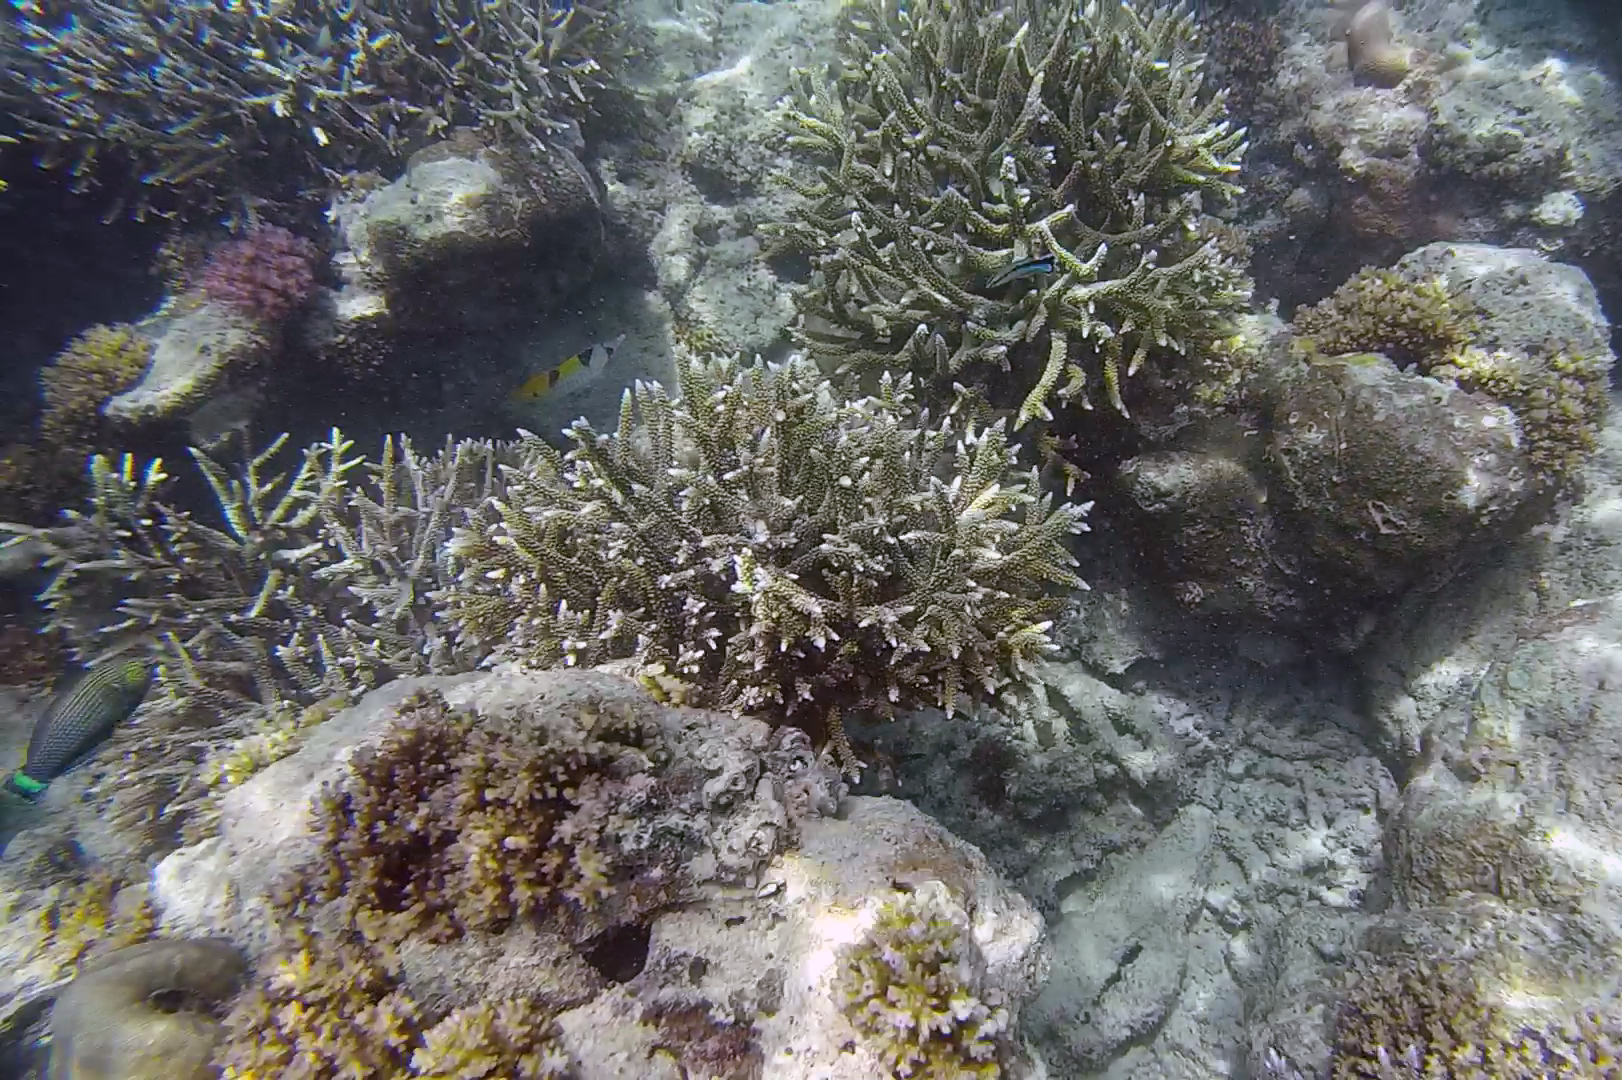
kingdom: Animalia
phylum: Chordata
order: Perciformes
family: Labridae
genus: Halichoeres
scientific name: Halichoeres
